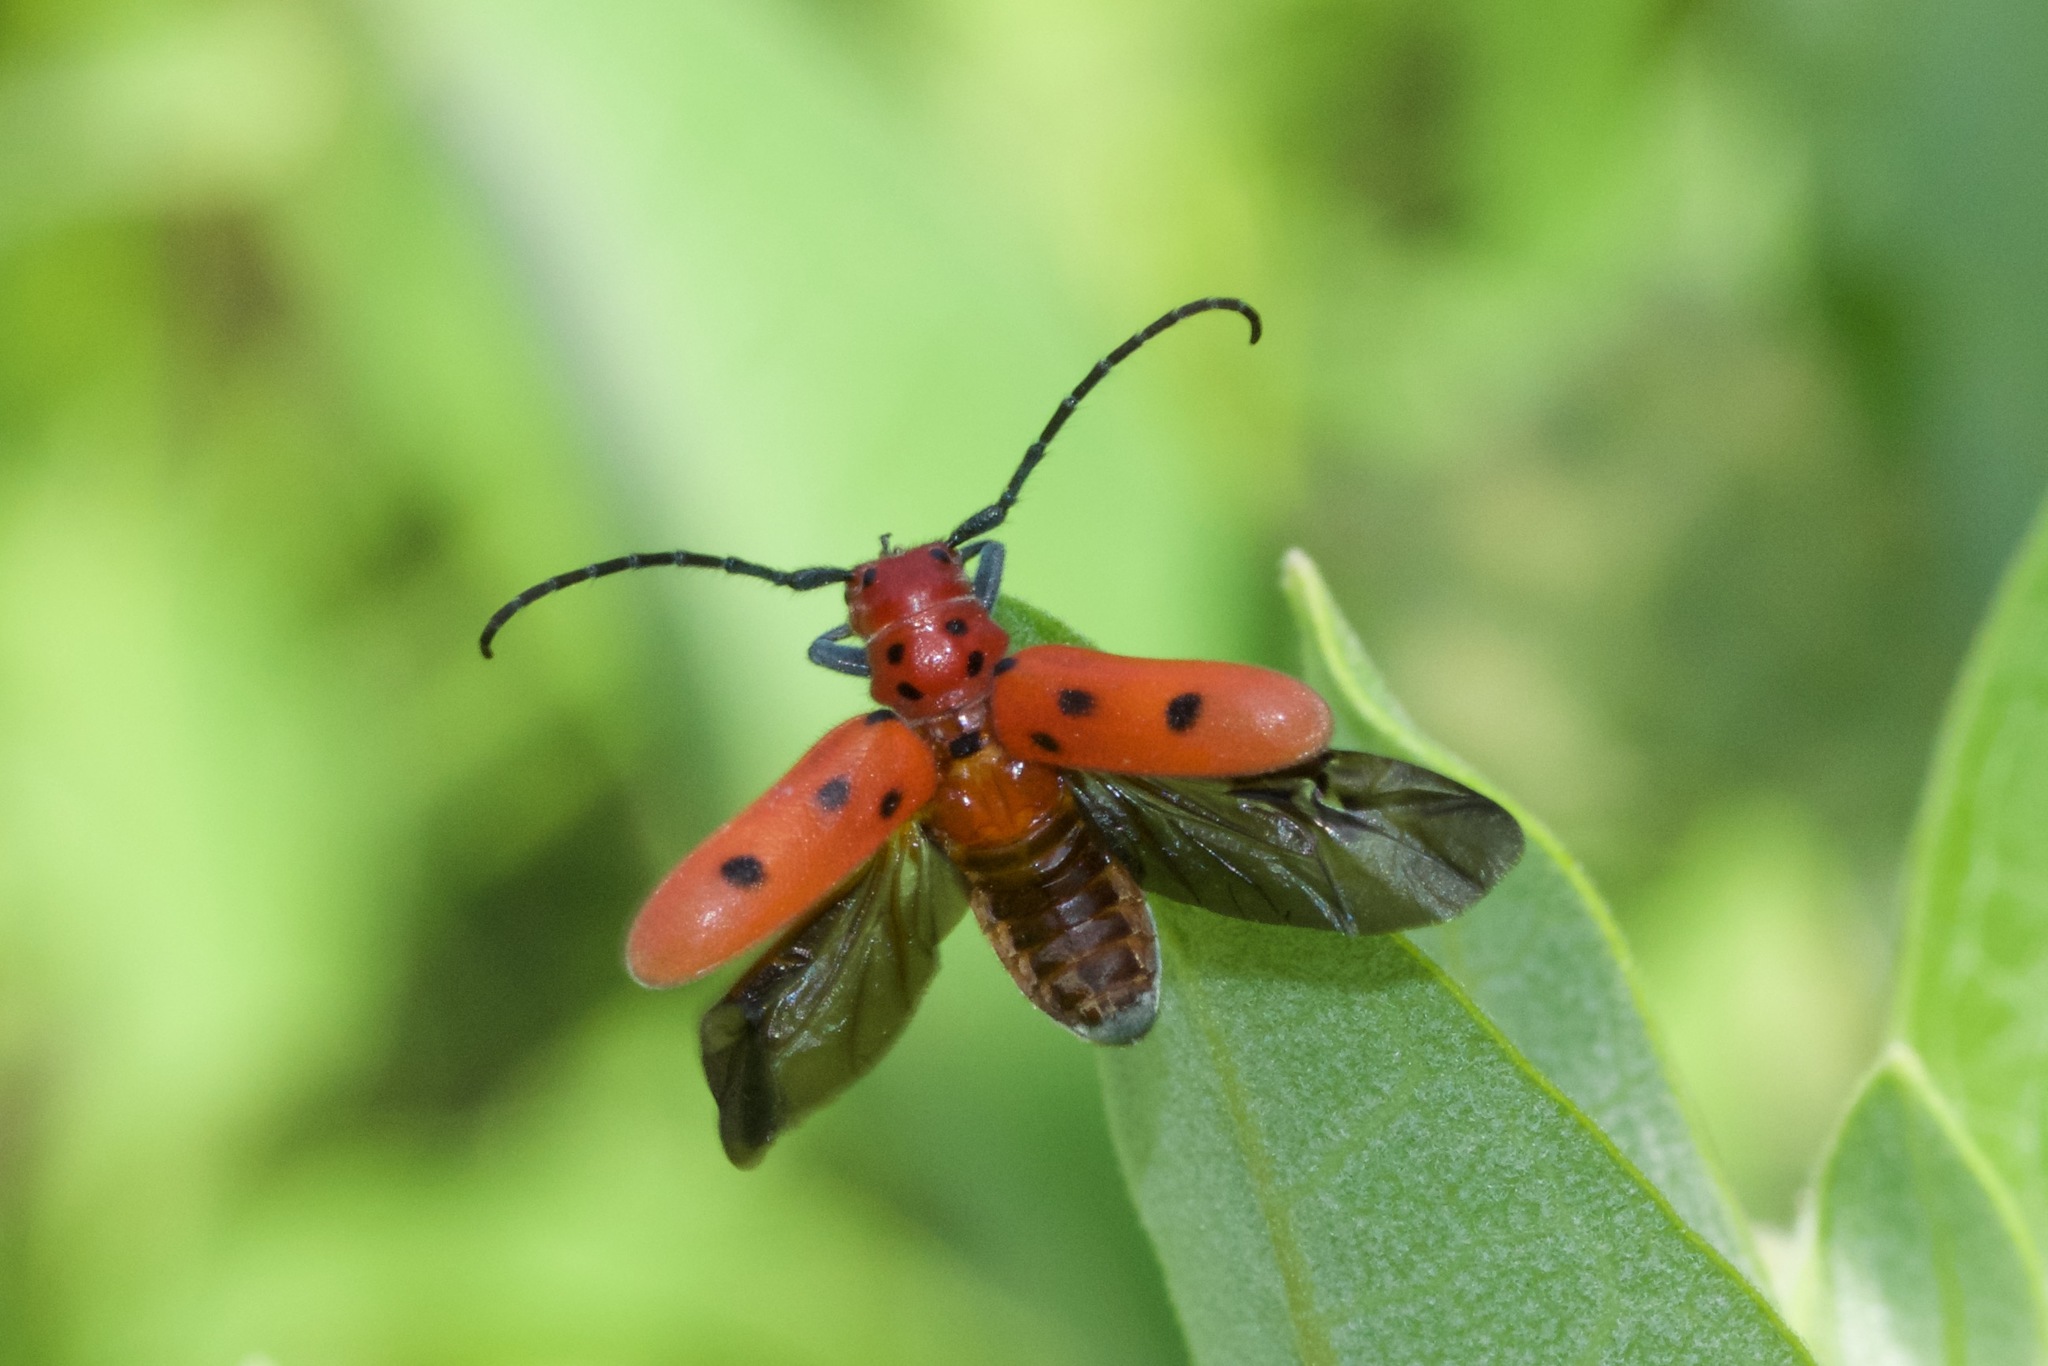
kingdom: Animalia
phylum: Arthropoda
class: Insecta
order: Coleoptera
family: Cerambycidae
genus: Tetraopes
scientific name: Tetraopes tetrophthalmus
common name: Red milkweed beetle
